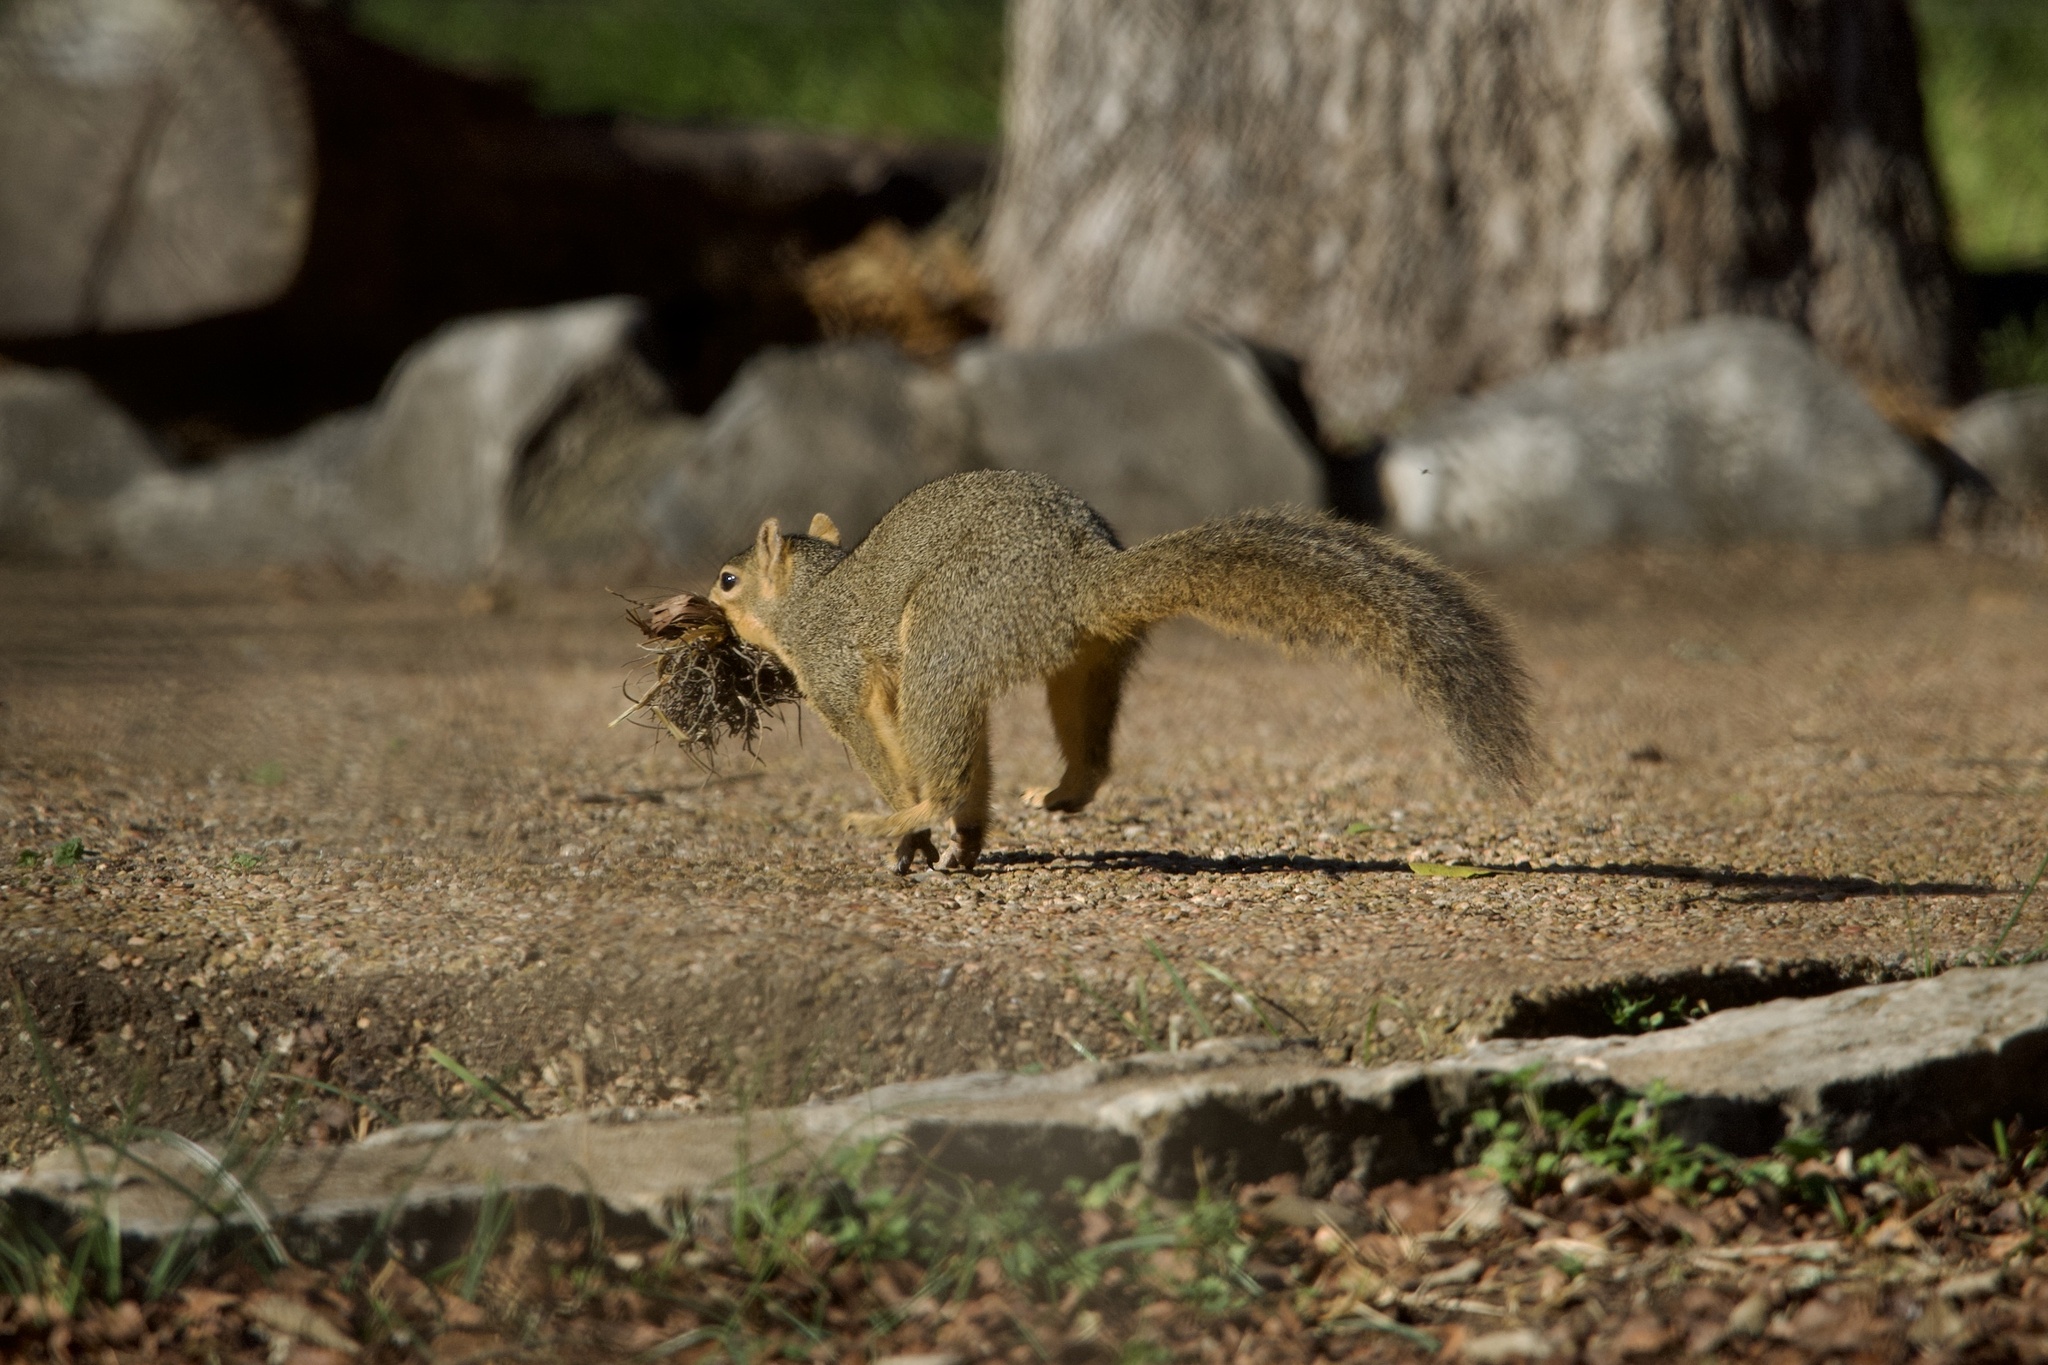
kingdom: Animalia
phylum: Chordata
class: Mammalia
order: Rodentia
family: Sciuridae
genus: Sciurus
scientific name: Sciurus niger
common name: Fox squirrel
